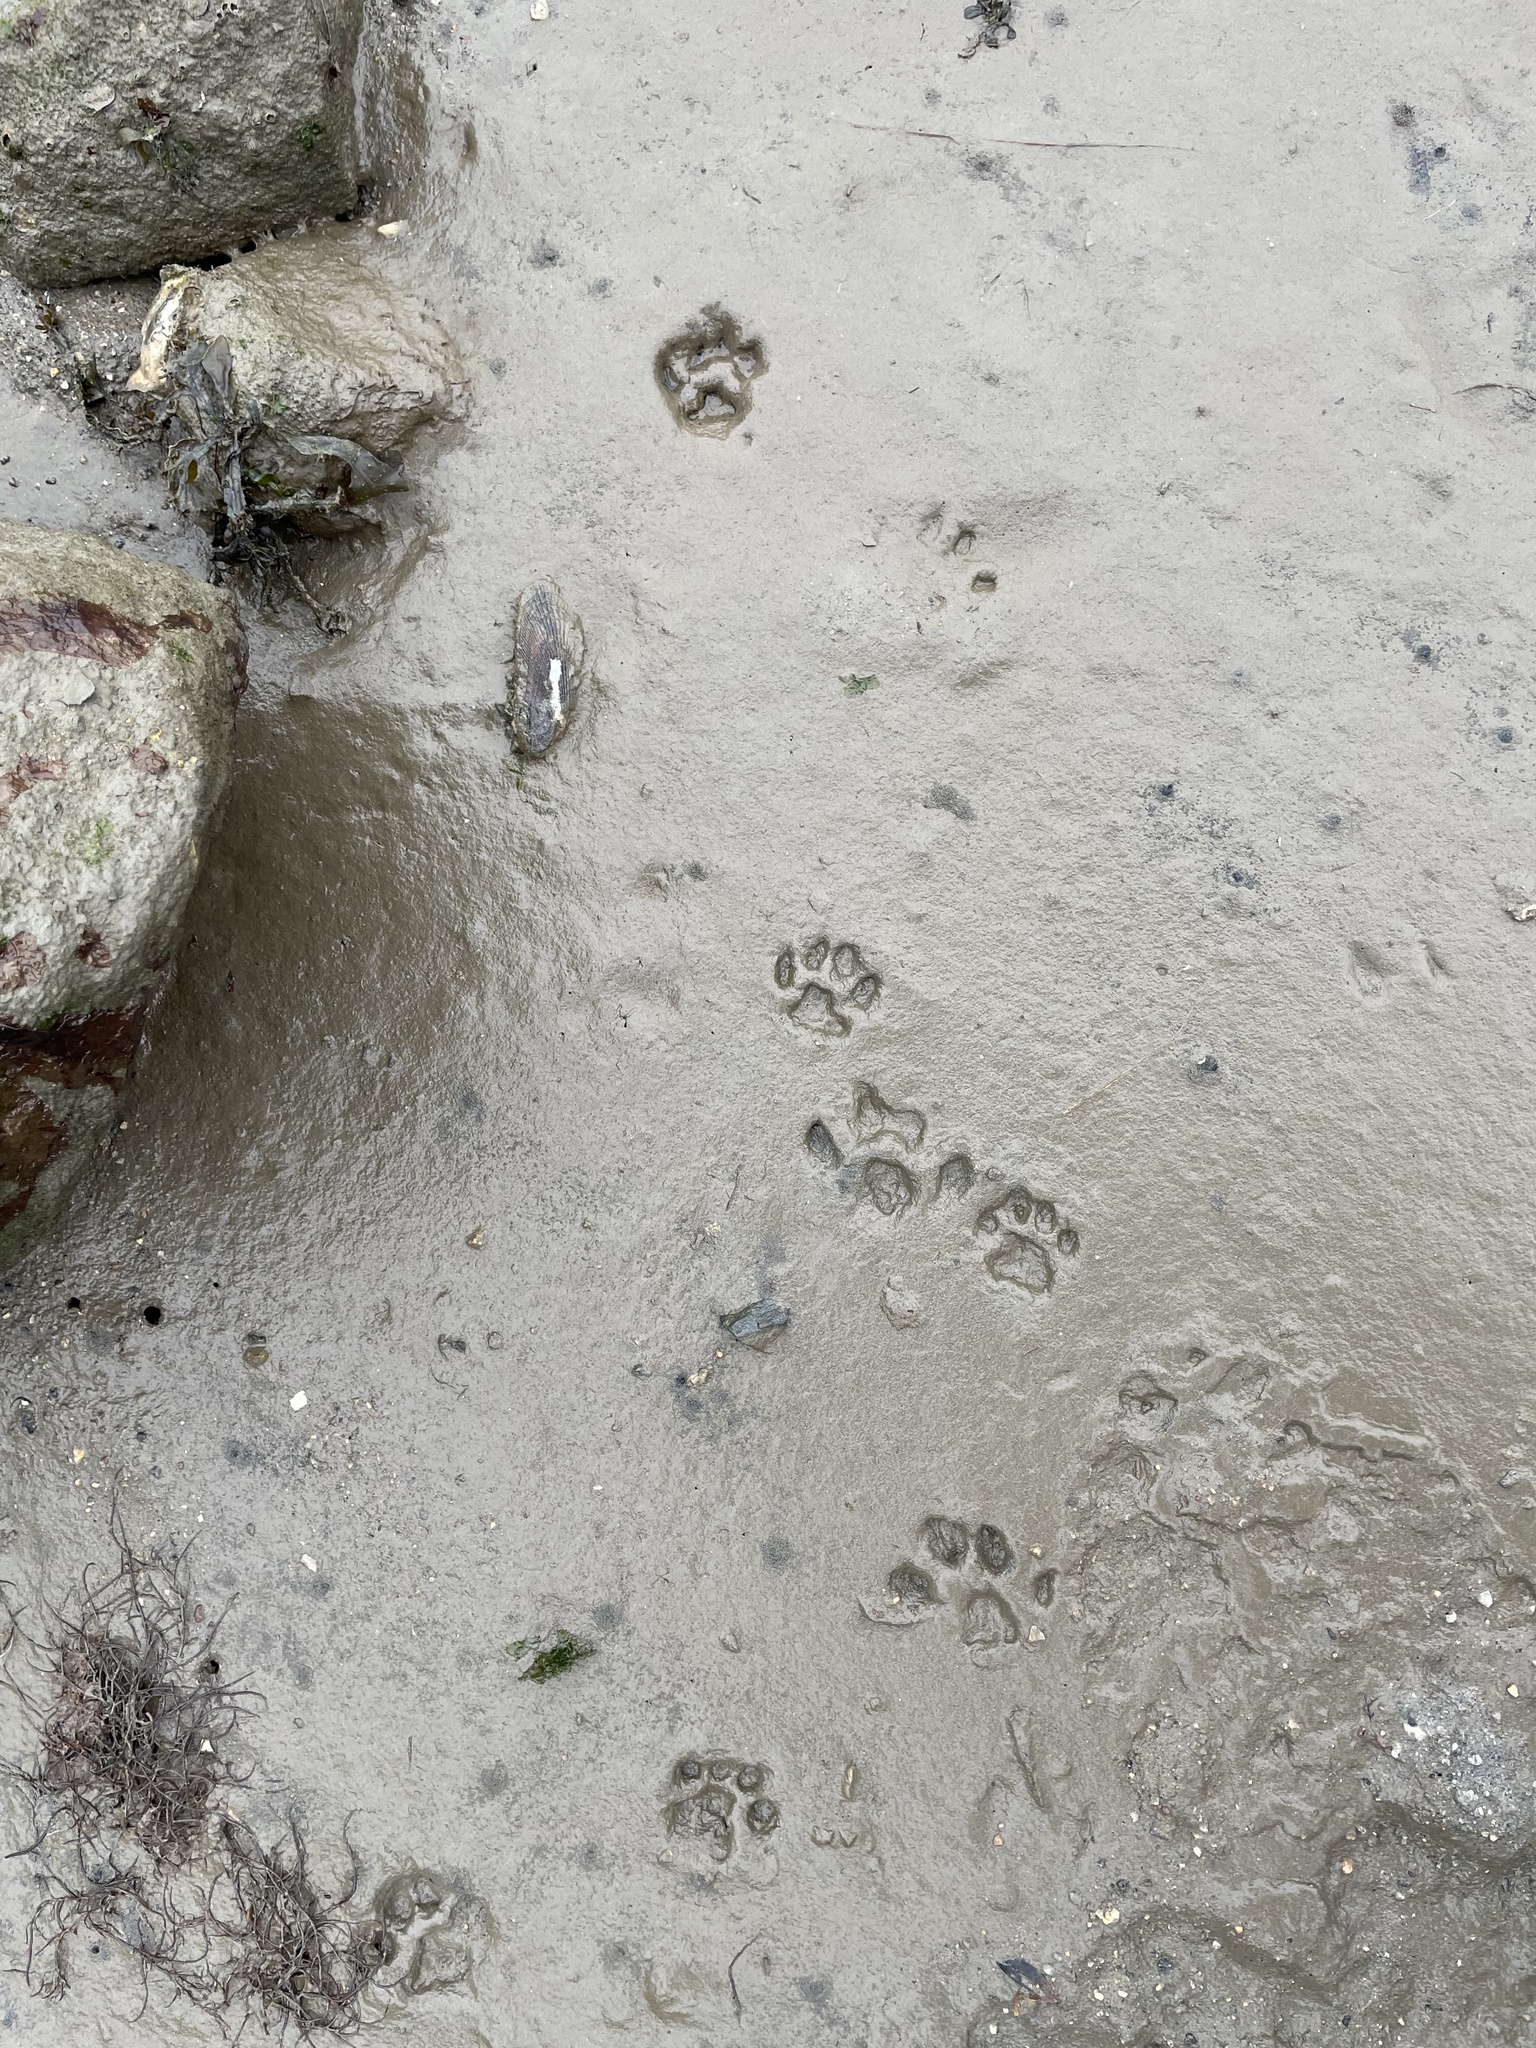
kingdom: Animalia
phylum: Chordata
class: Mammalia
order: Carnivora
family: Felidae
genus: Felis
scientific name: Felis catus
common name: Domestic cat
